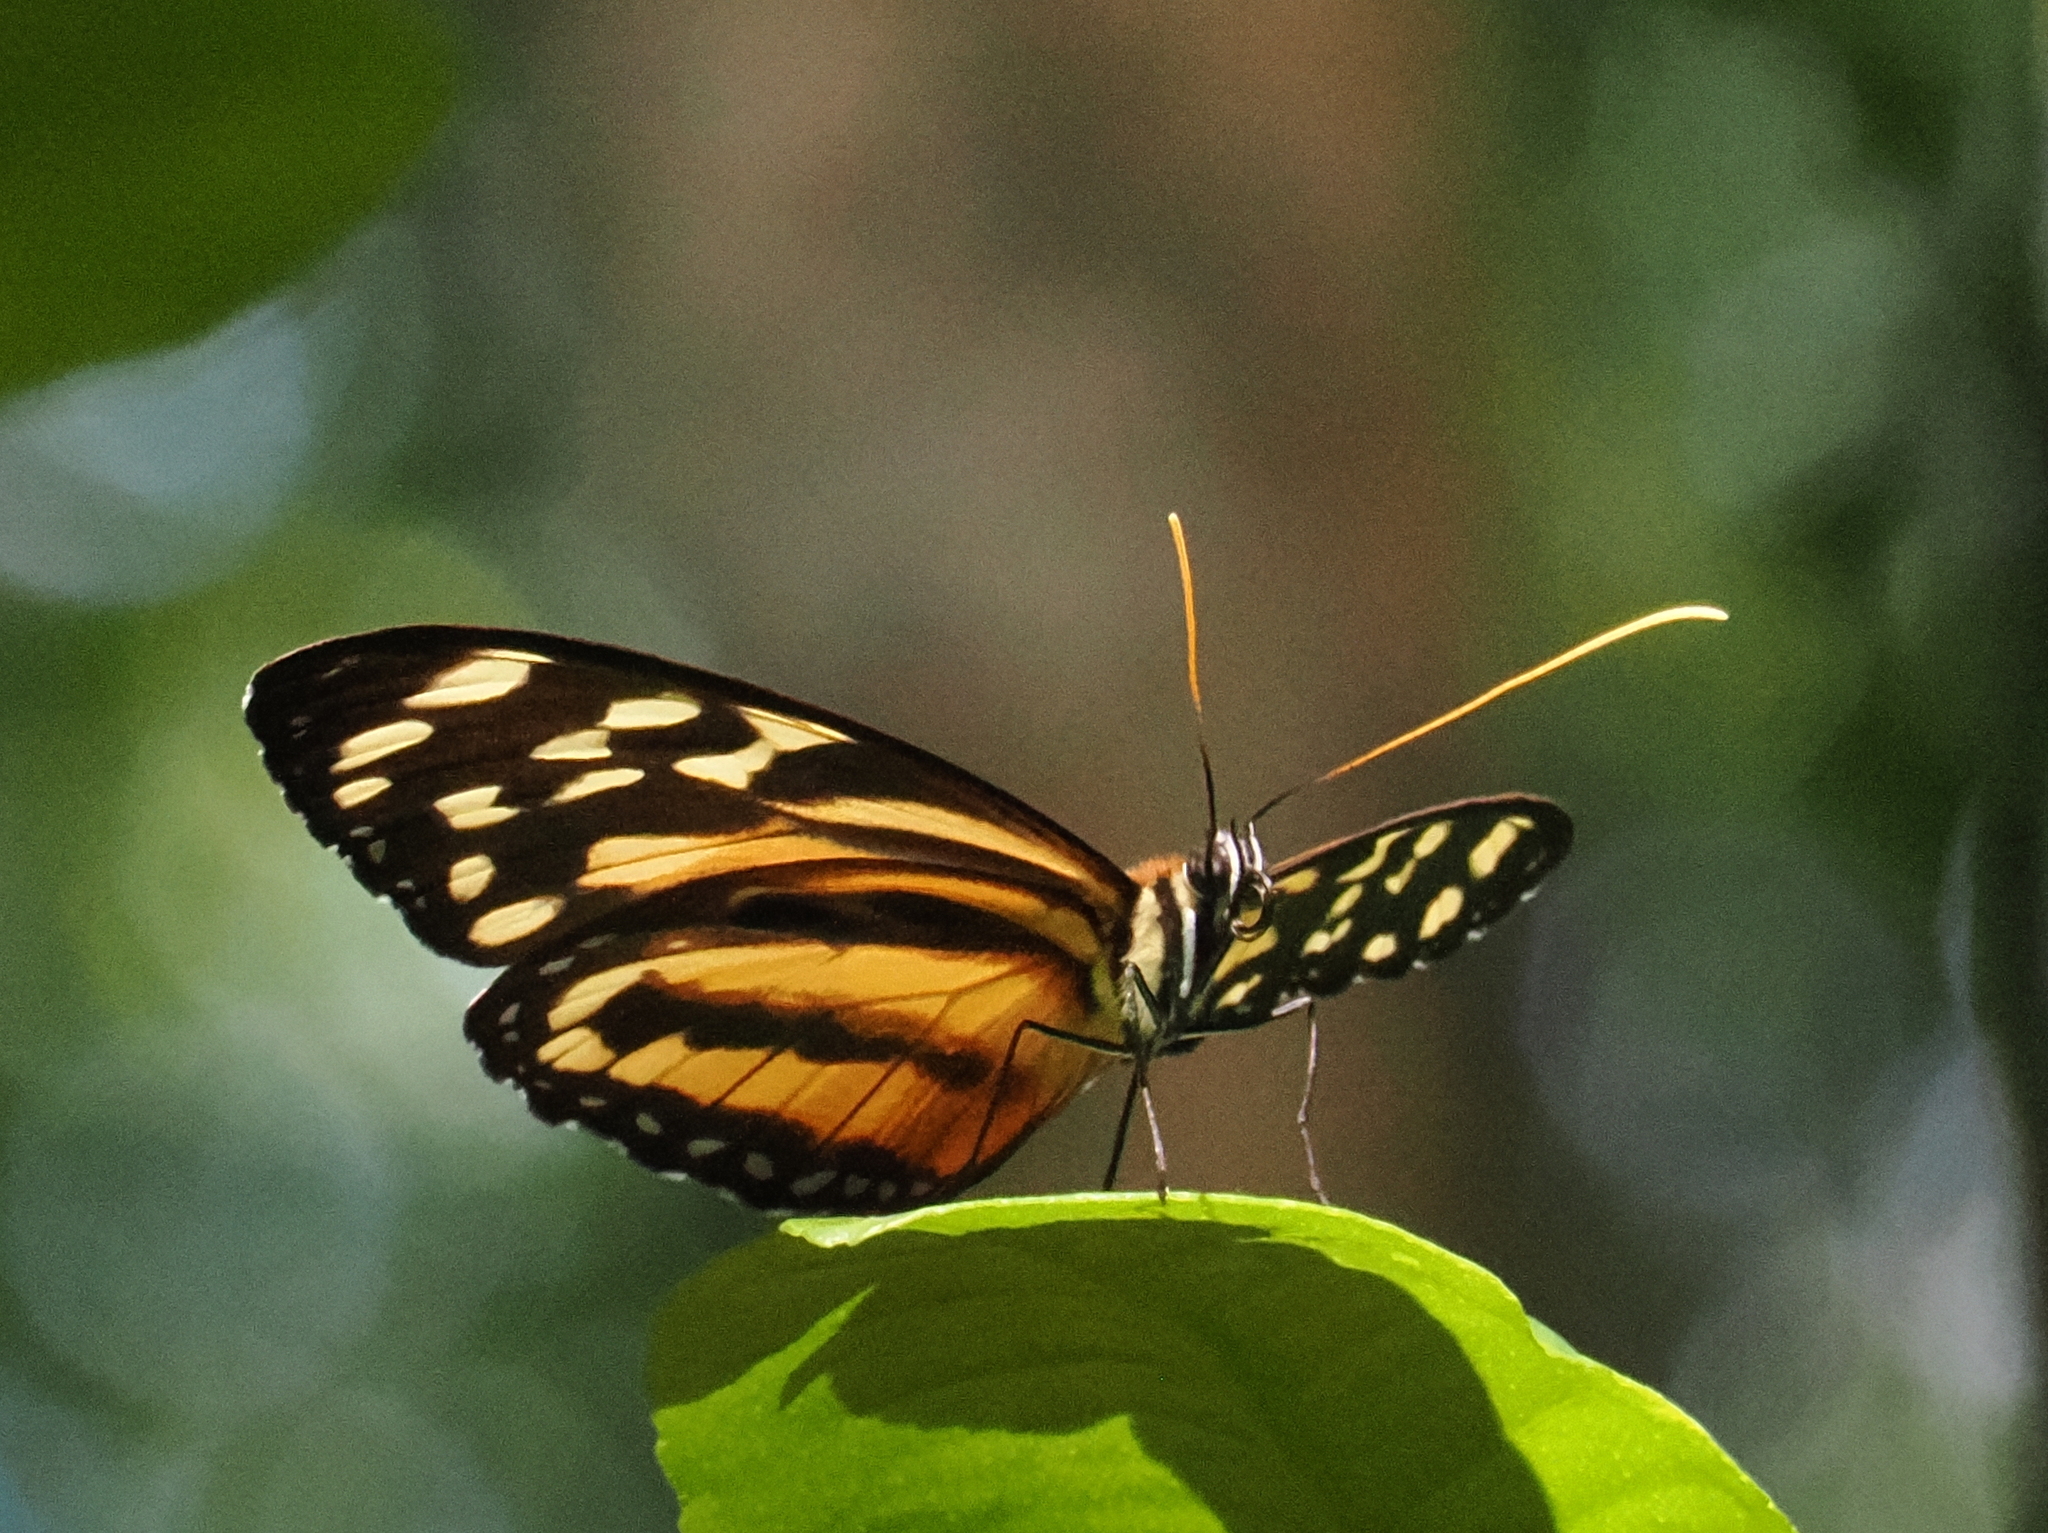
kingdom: Animalia
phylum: Arthropoda
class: Insecta
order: Lepidoptera
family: Nymphalidae
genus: Tithorea
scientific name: Tithorea harmonia
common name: Harmonia tigerwing
